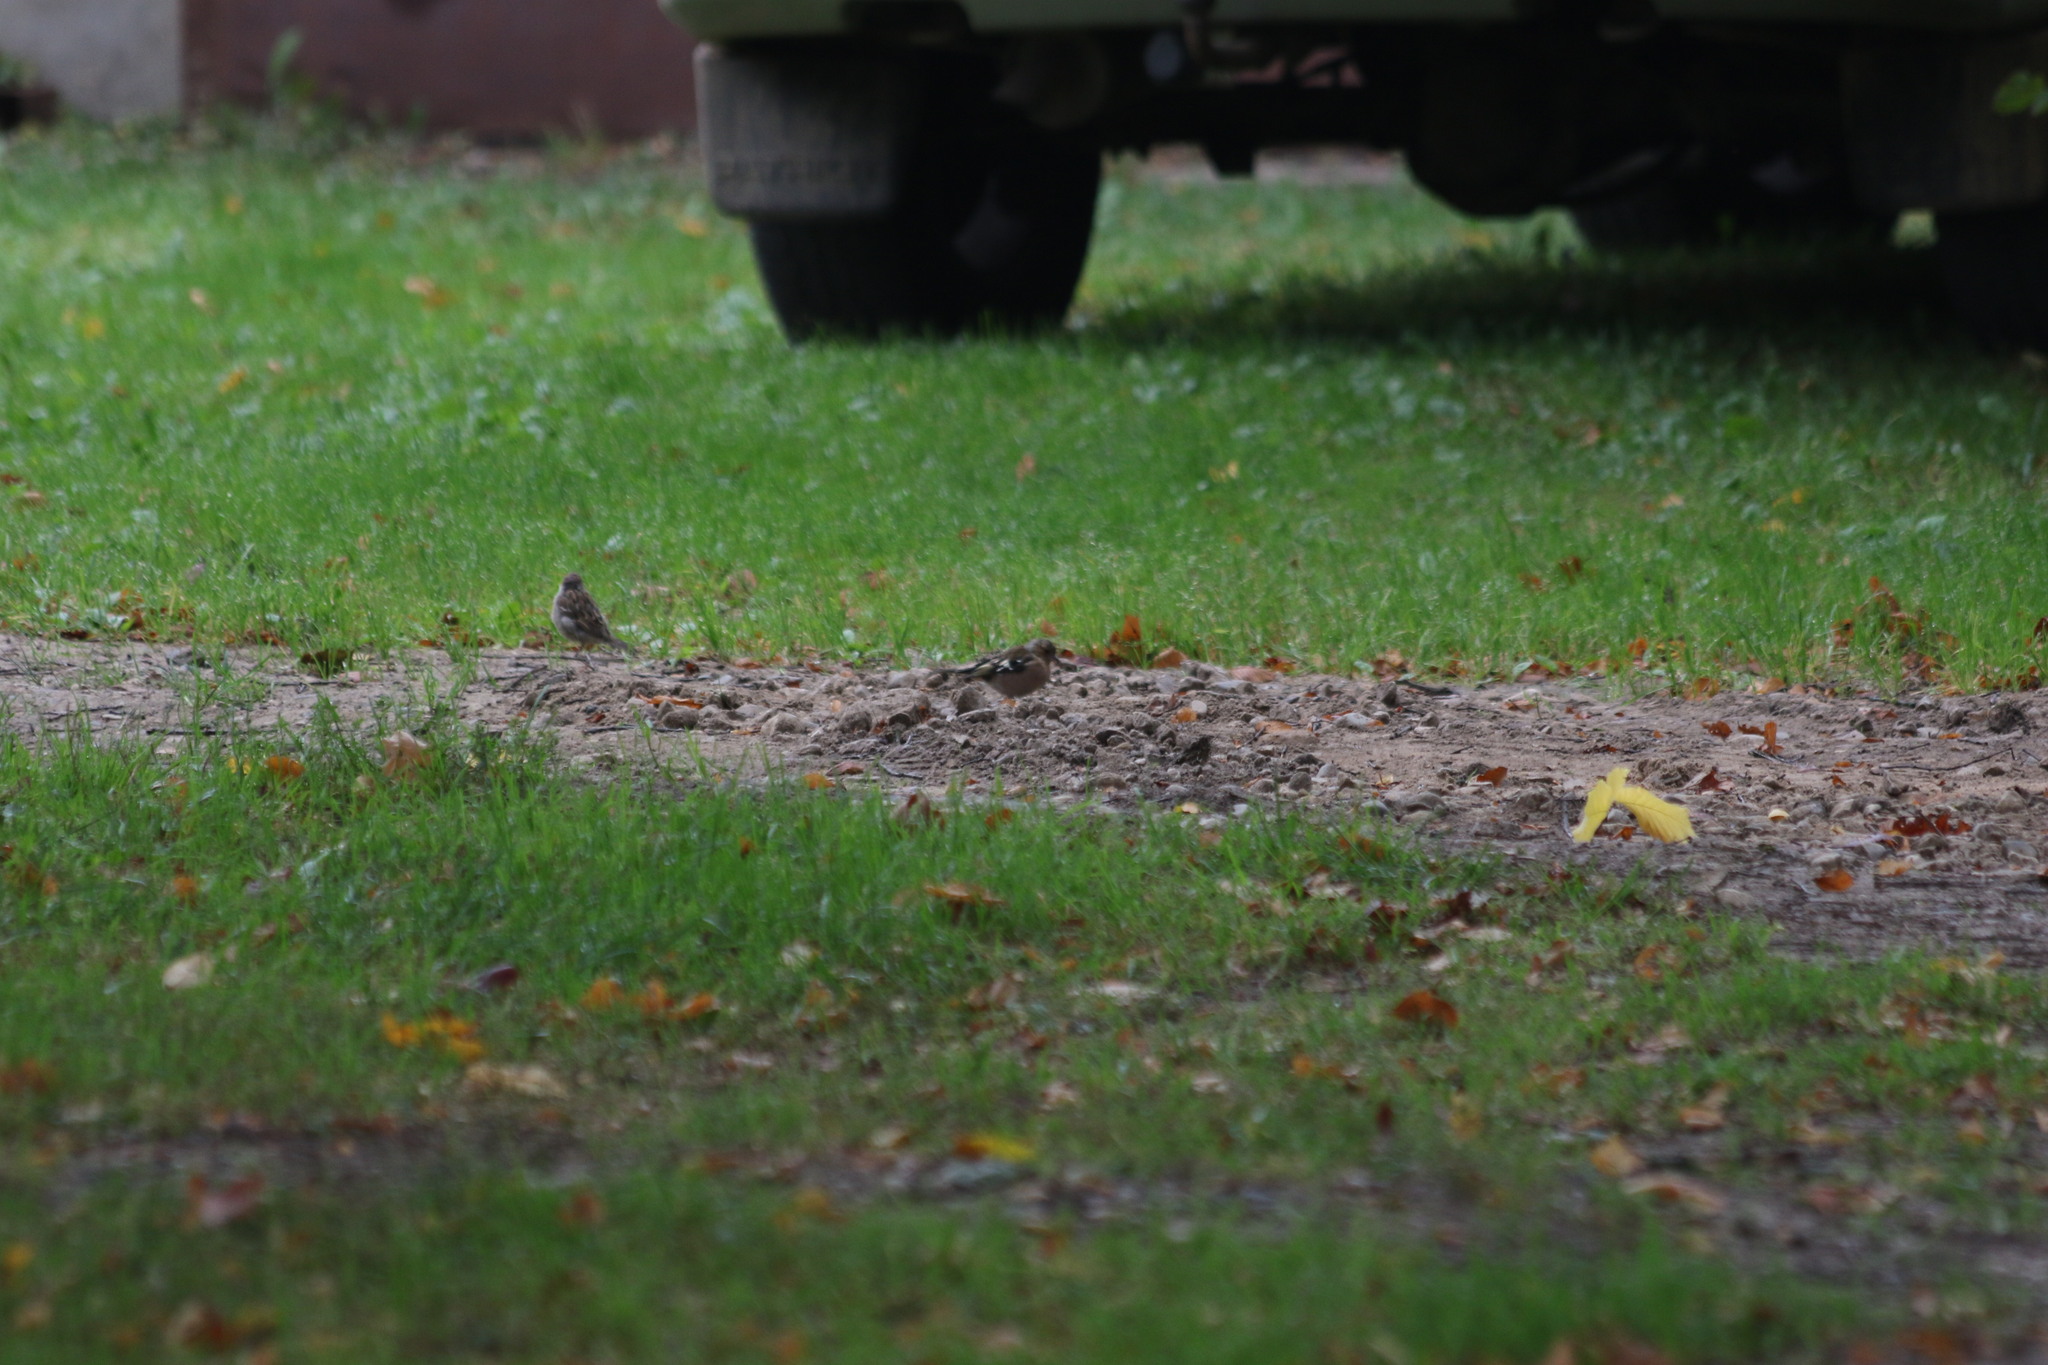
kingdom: Animalia
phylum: Chordata
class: Aves
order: Passeriformes
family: Fringillidae
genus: Fringilla
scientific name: Fringilla coelebs
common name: Common chaffinch
